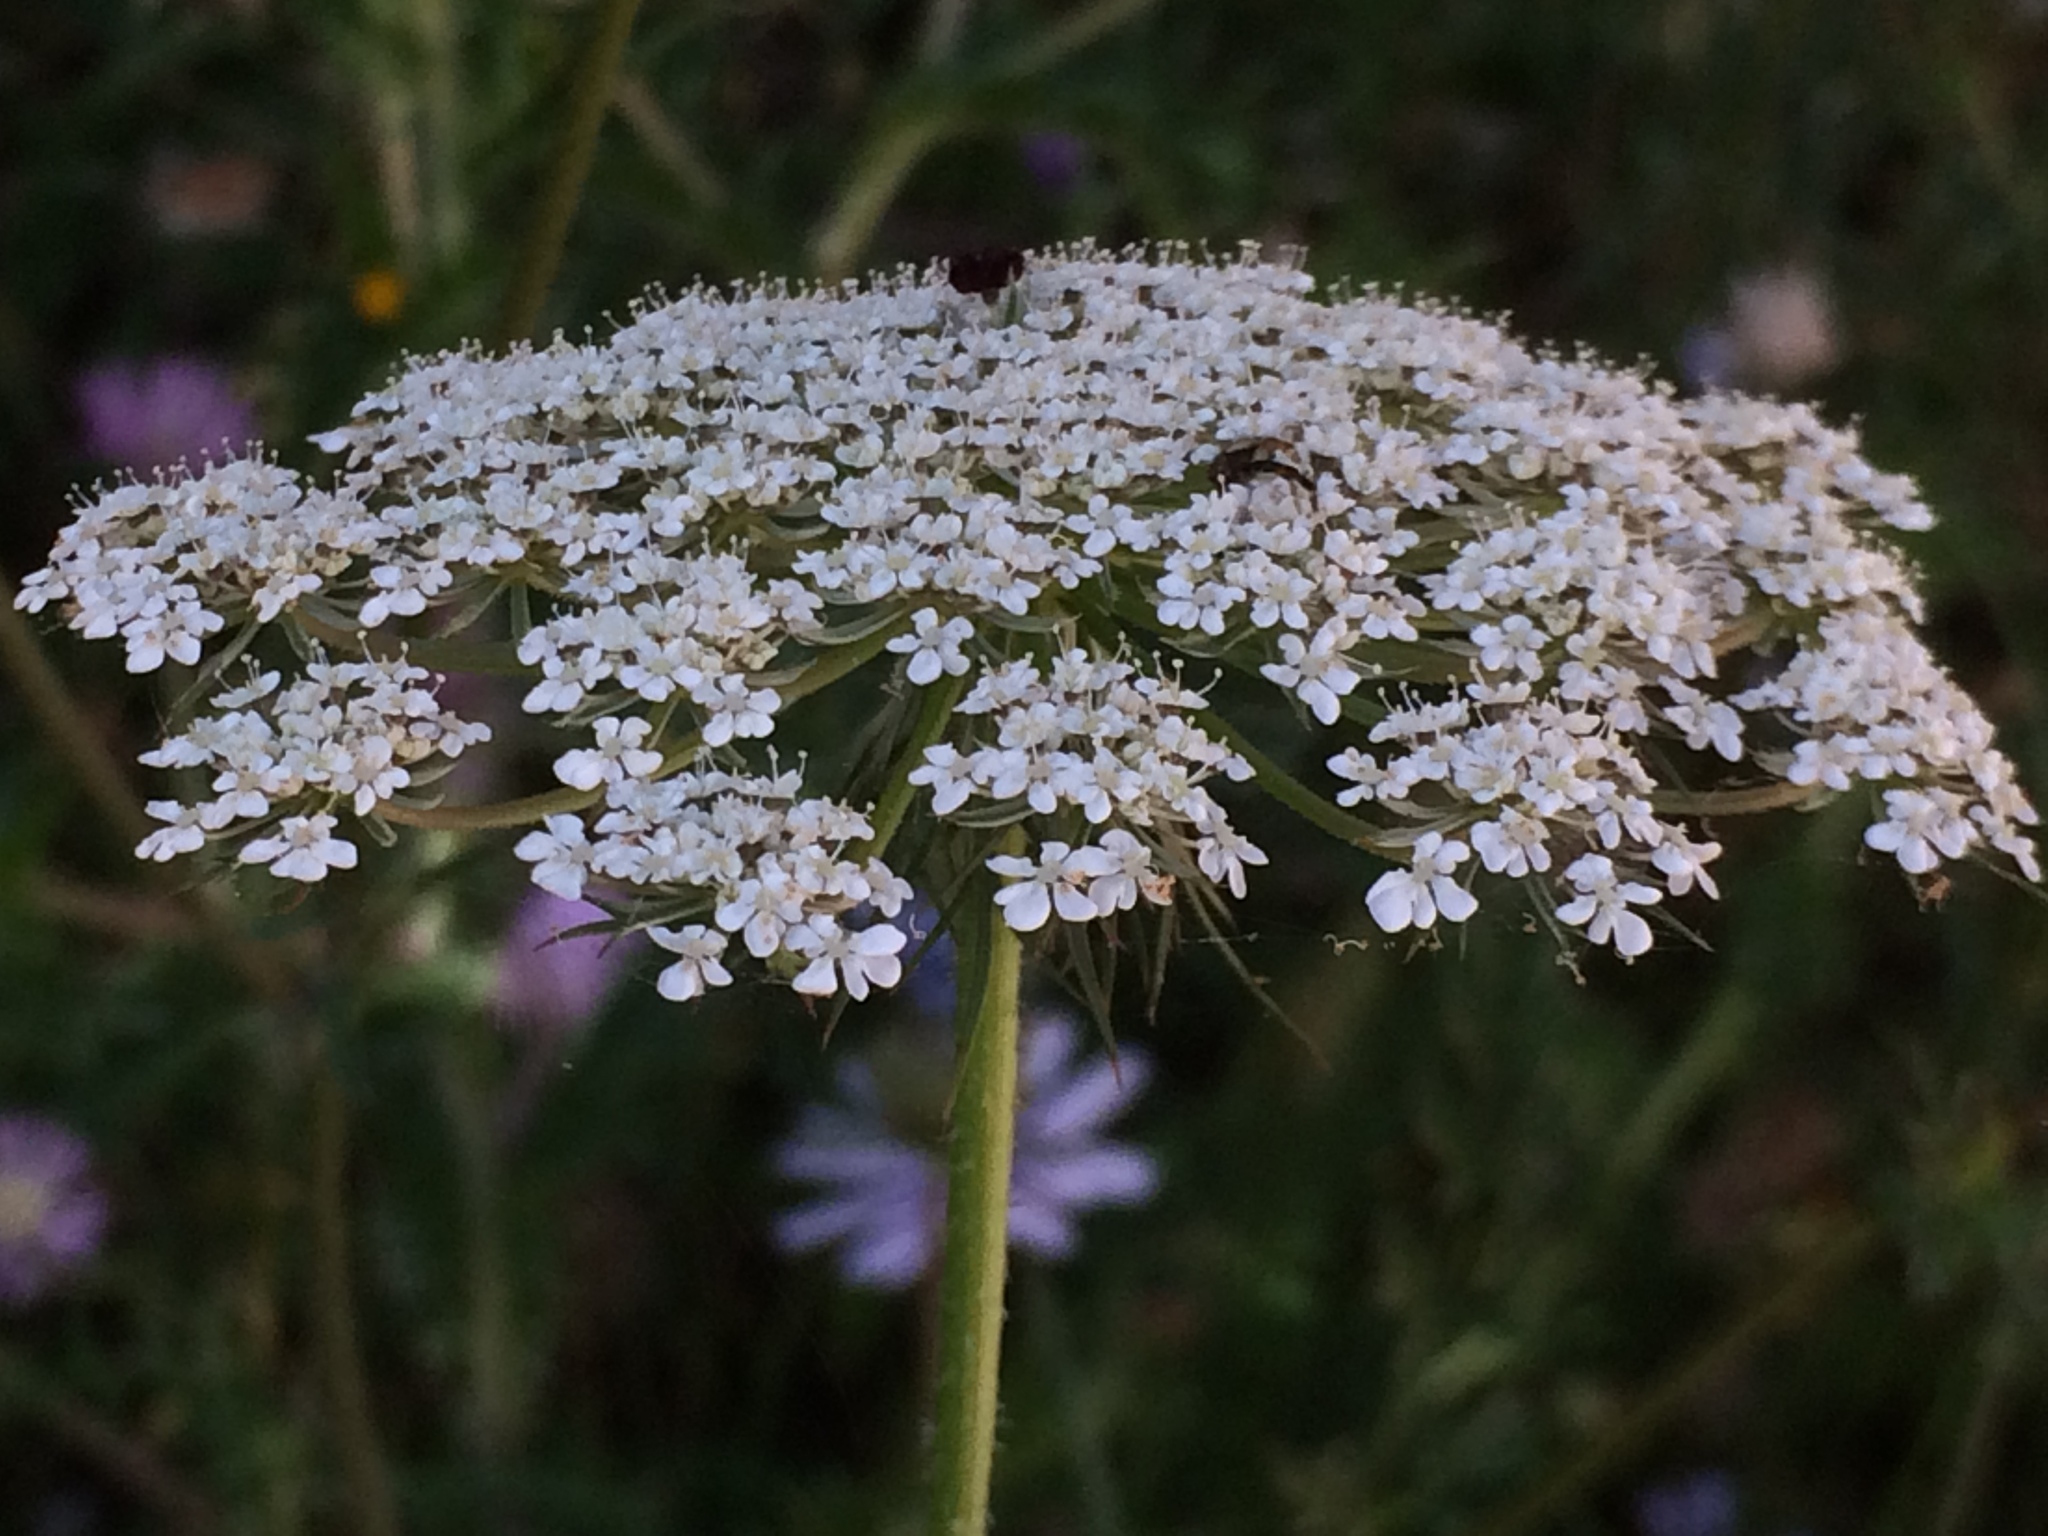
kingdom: Plantae
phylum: Tracheophyta
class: Magnoliopsida
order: Apiales
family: Apiaceae
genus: Daucus
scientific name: Daucus carota
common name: Wild carrot
